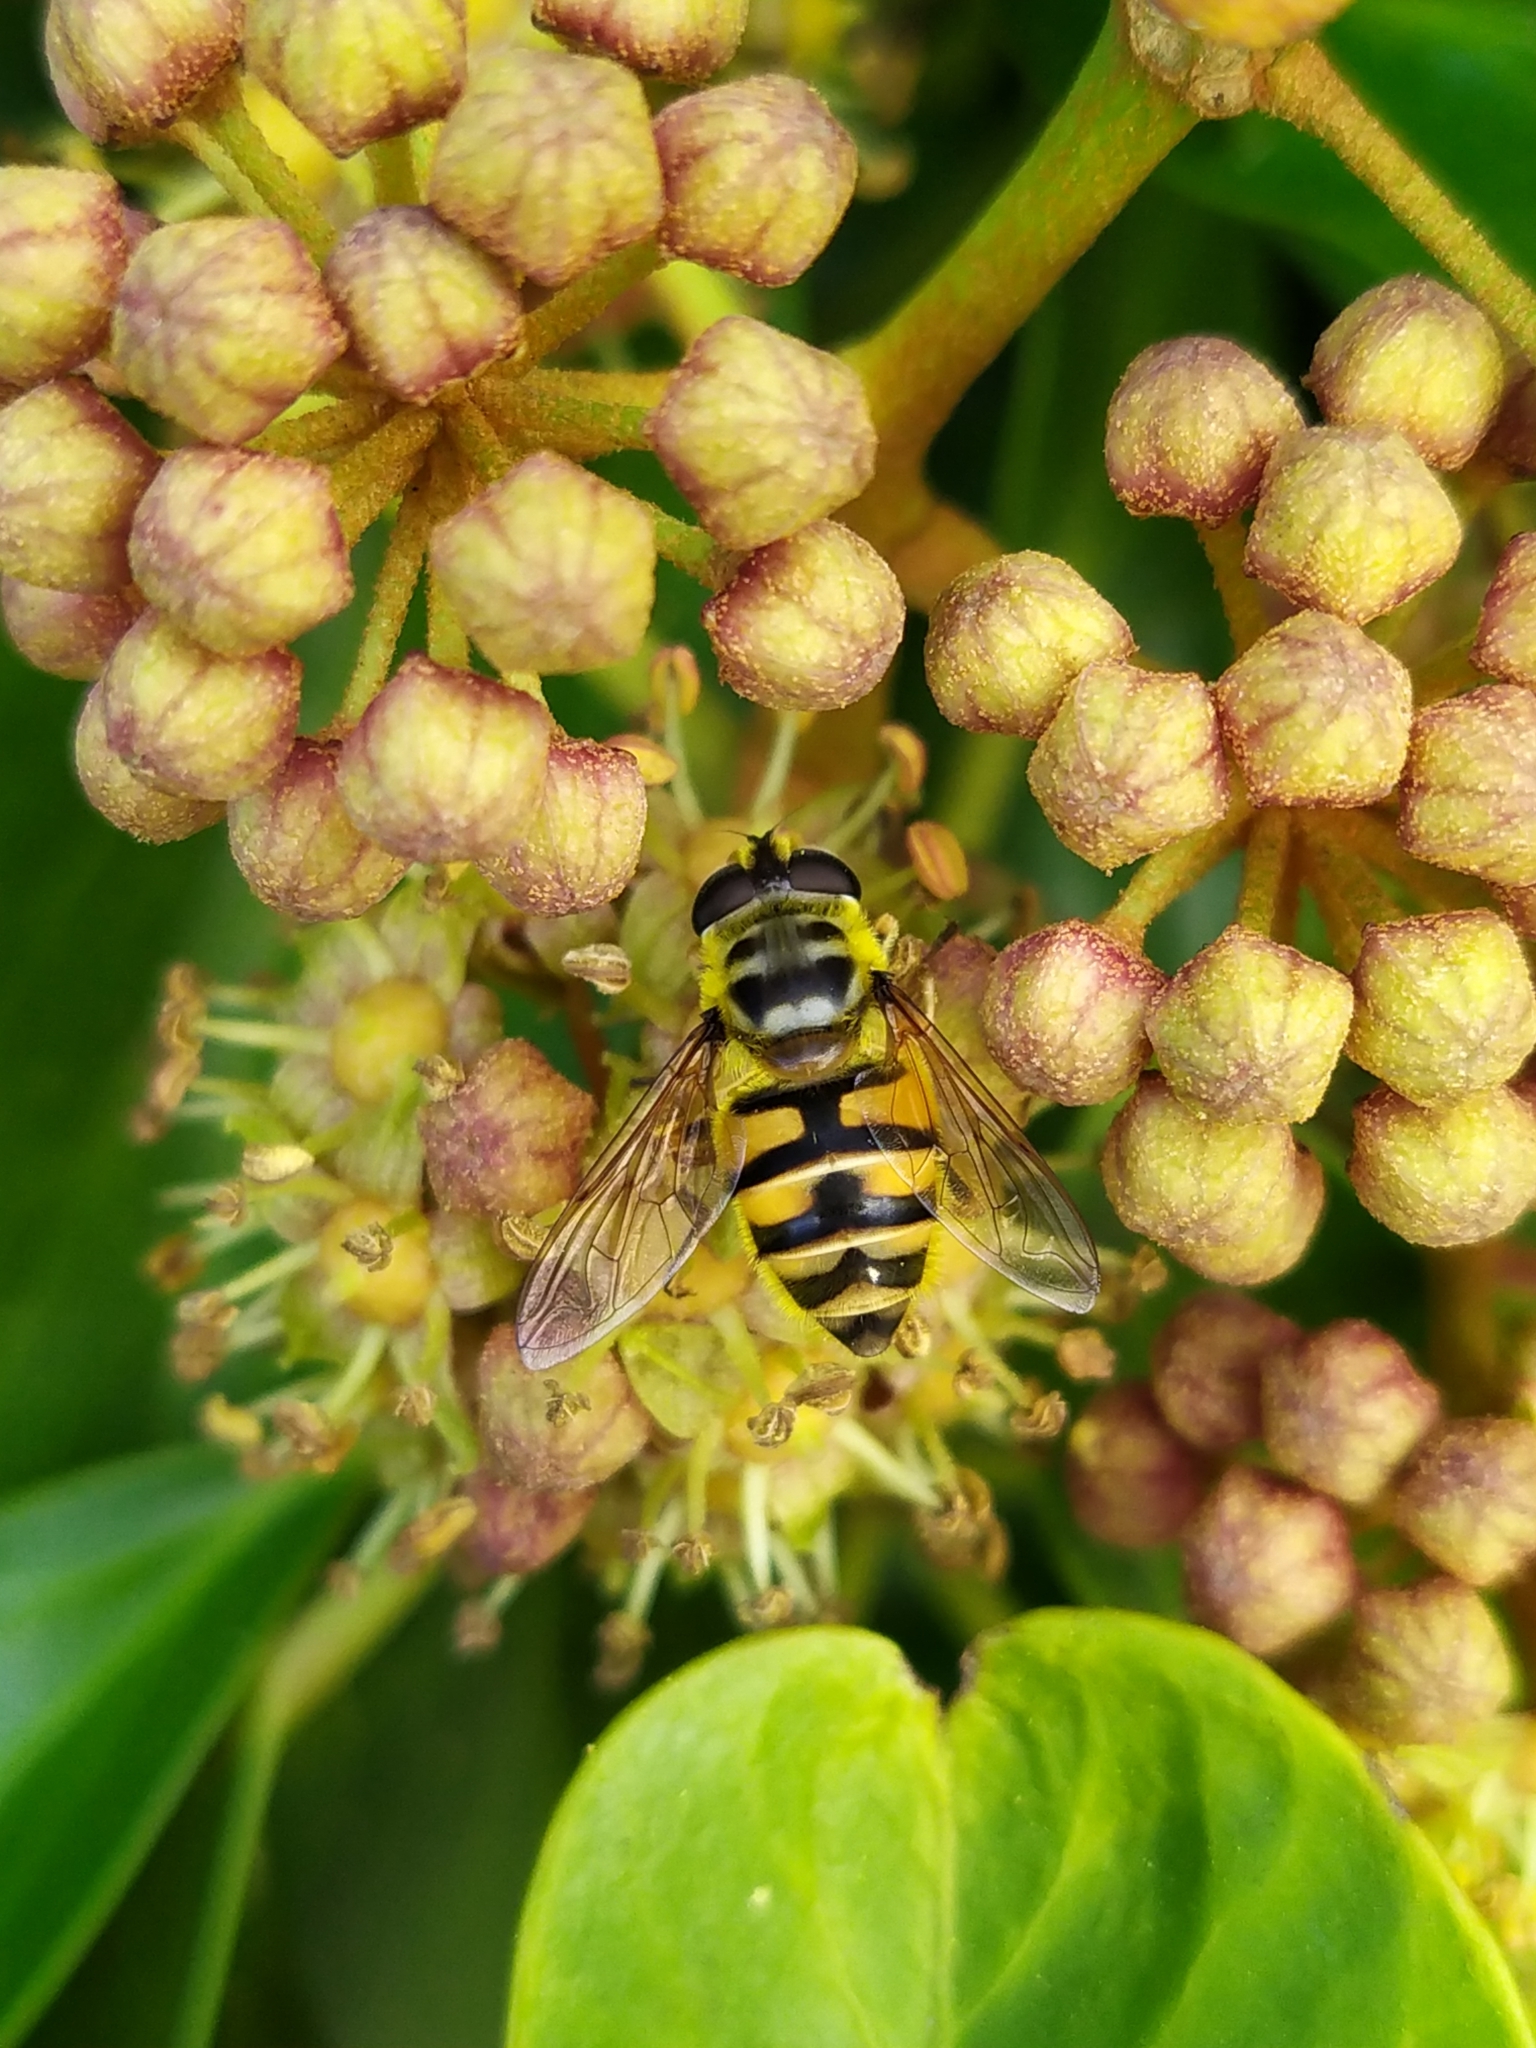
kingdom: Animalia
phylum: Arthropoda
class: Insecta
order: Diptera
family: Syrphidae
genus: Myathropa
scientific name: Myathropa florea
